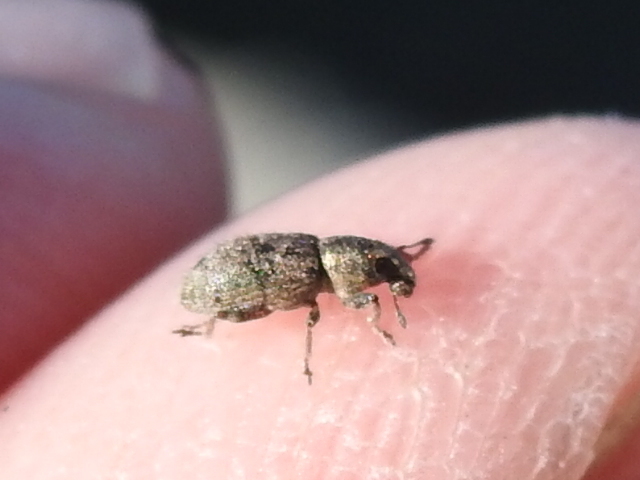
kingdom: Animalia
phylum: Arthropoda
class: Insecta
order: Coleoptera
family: Curculionidae
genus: Sitona
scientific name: Sitona hispidulus
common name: Clover weevil
